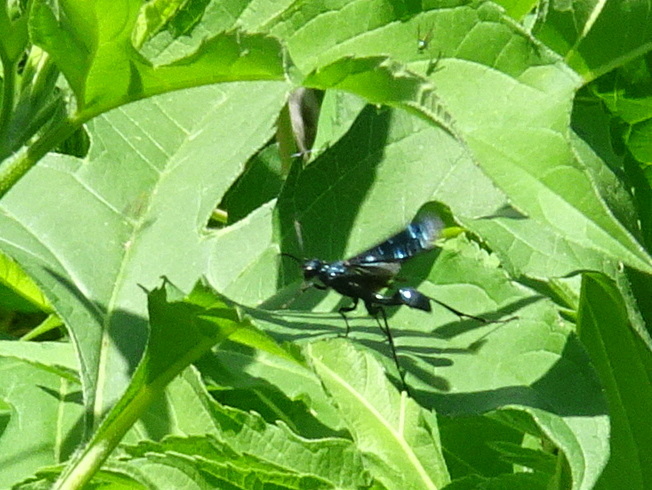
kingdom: Animalia
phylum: Arthropoda
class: Insecta
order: Hymenoptera
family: Sphecidae
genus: Chalybion
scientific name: Chalybion californicum
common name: Mud dauber
